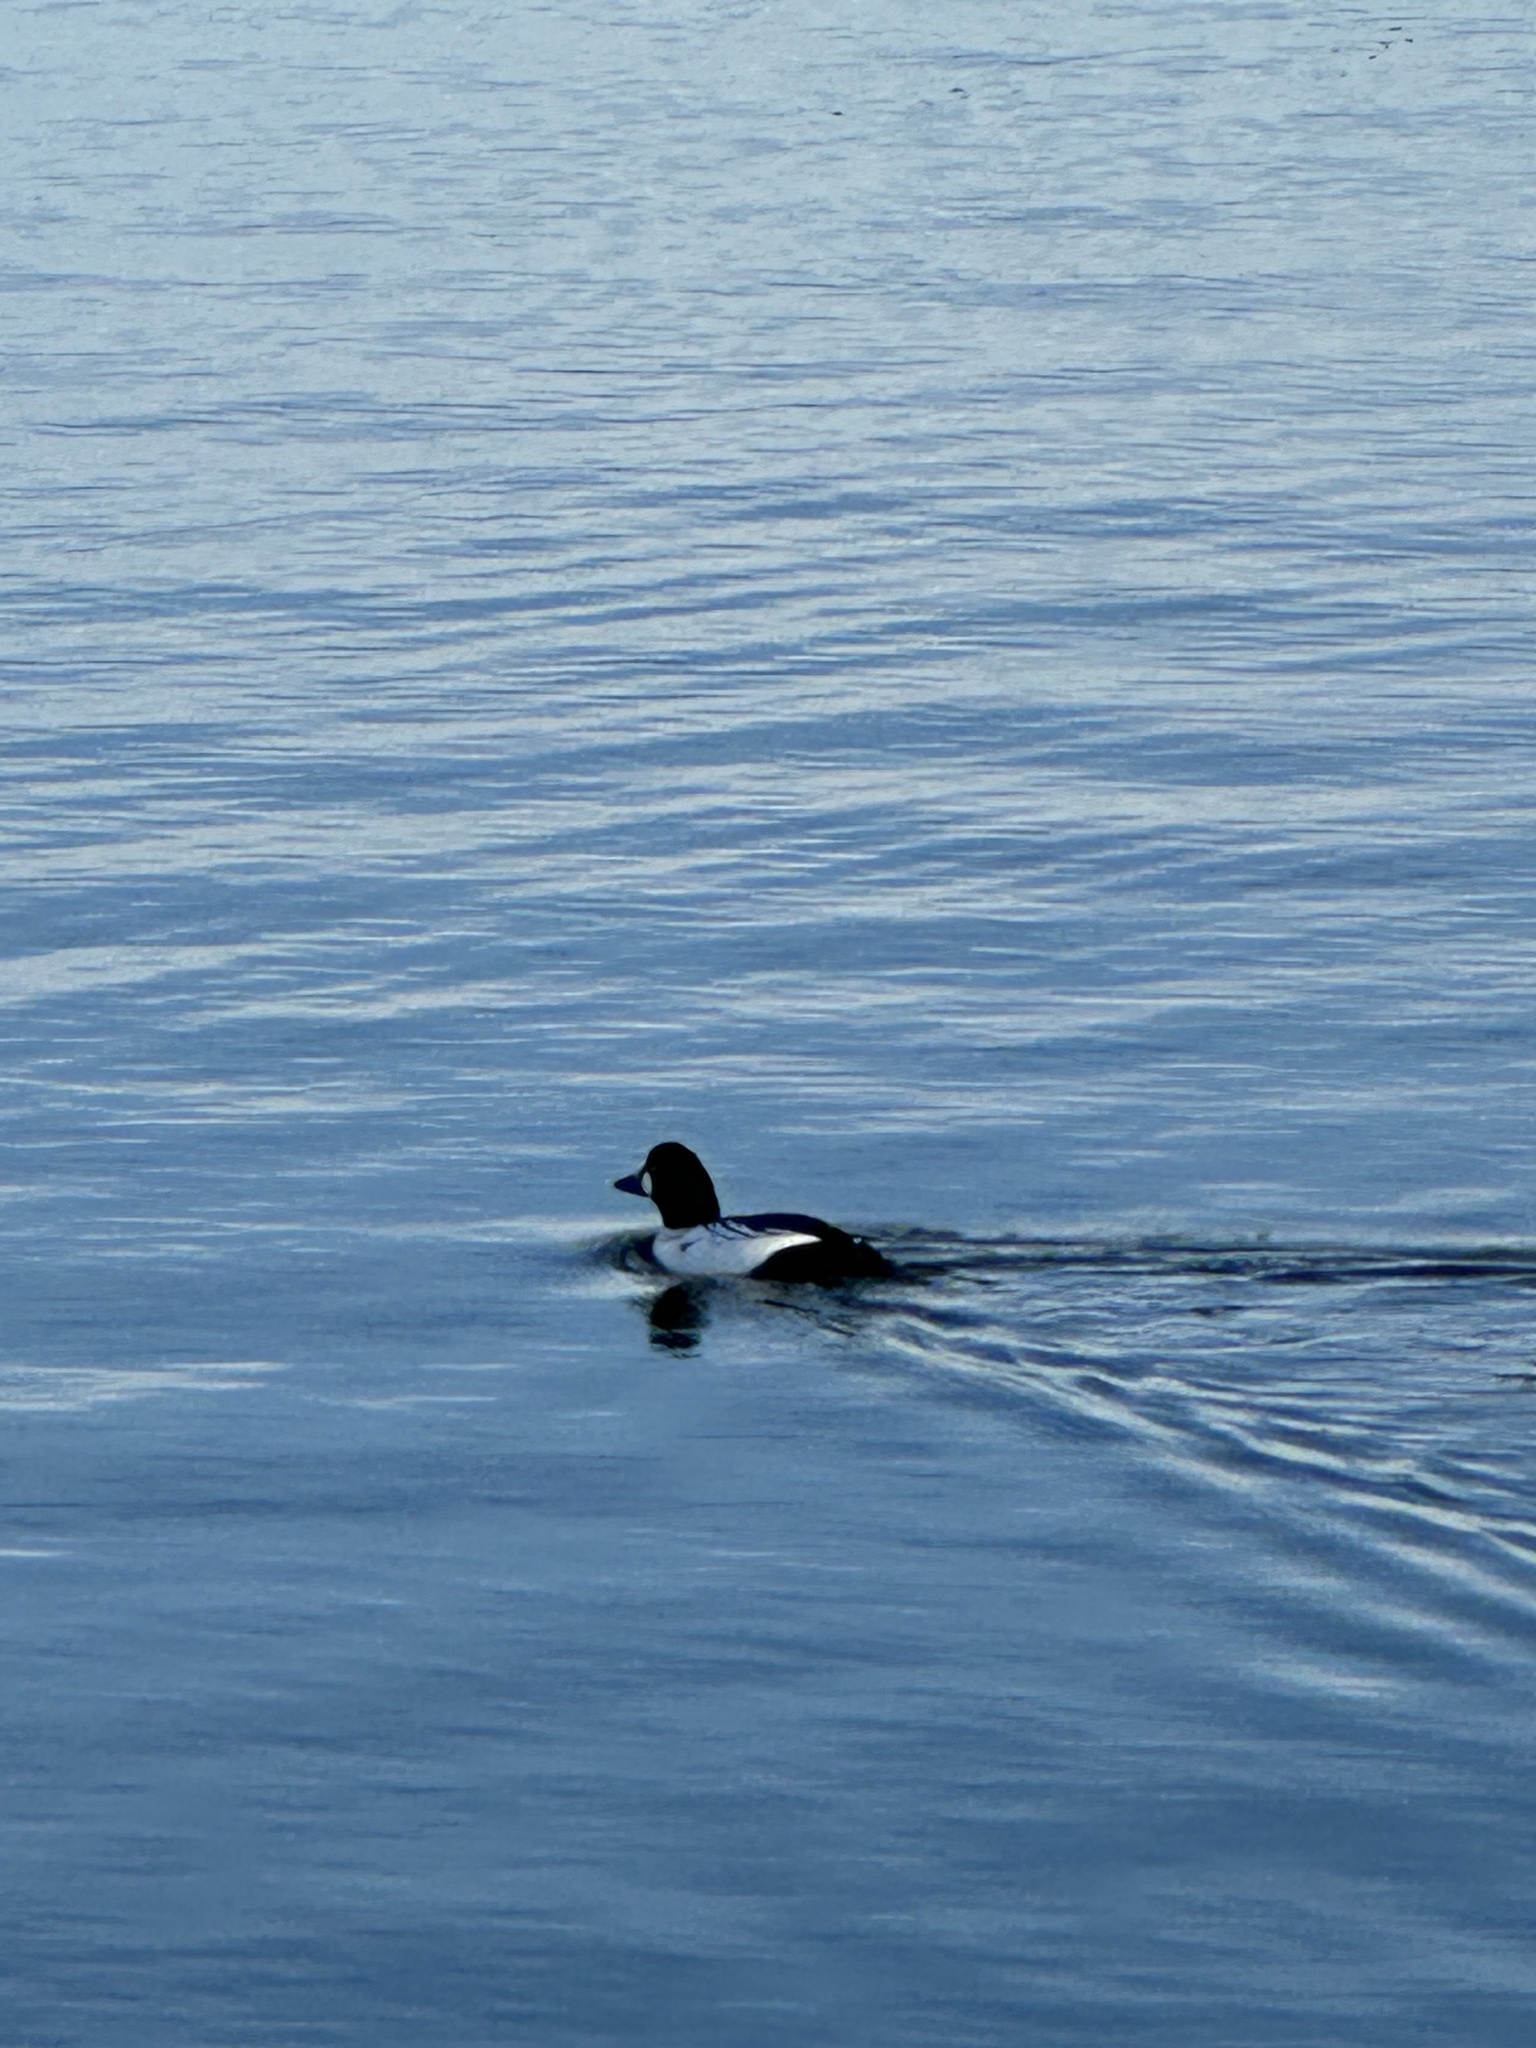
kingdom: Animalia
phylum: Chordata
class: Aves
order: Anseriformes
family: Anatidae
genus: Bucephala
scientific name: Bucephala clangula
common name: Common goldeneye
